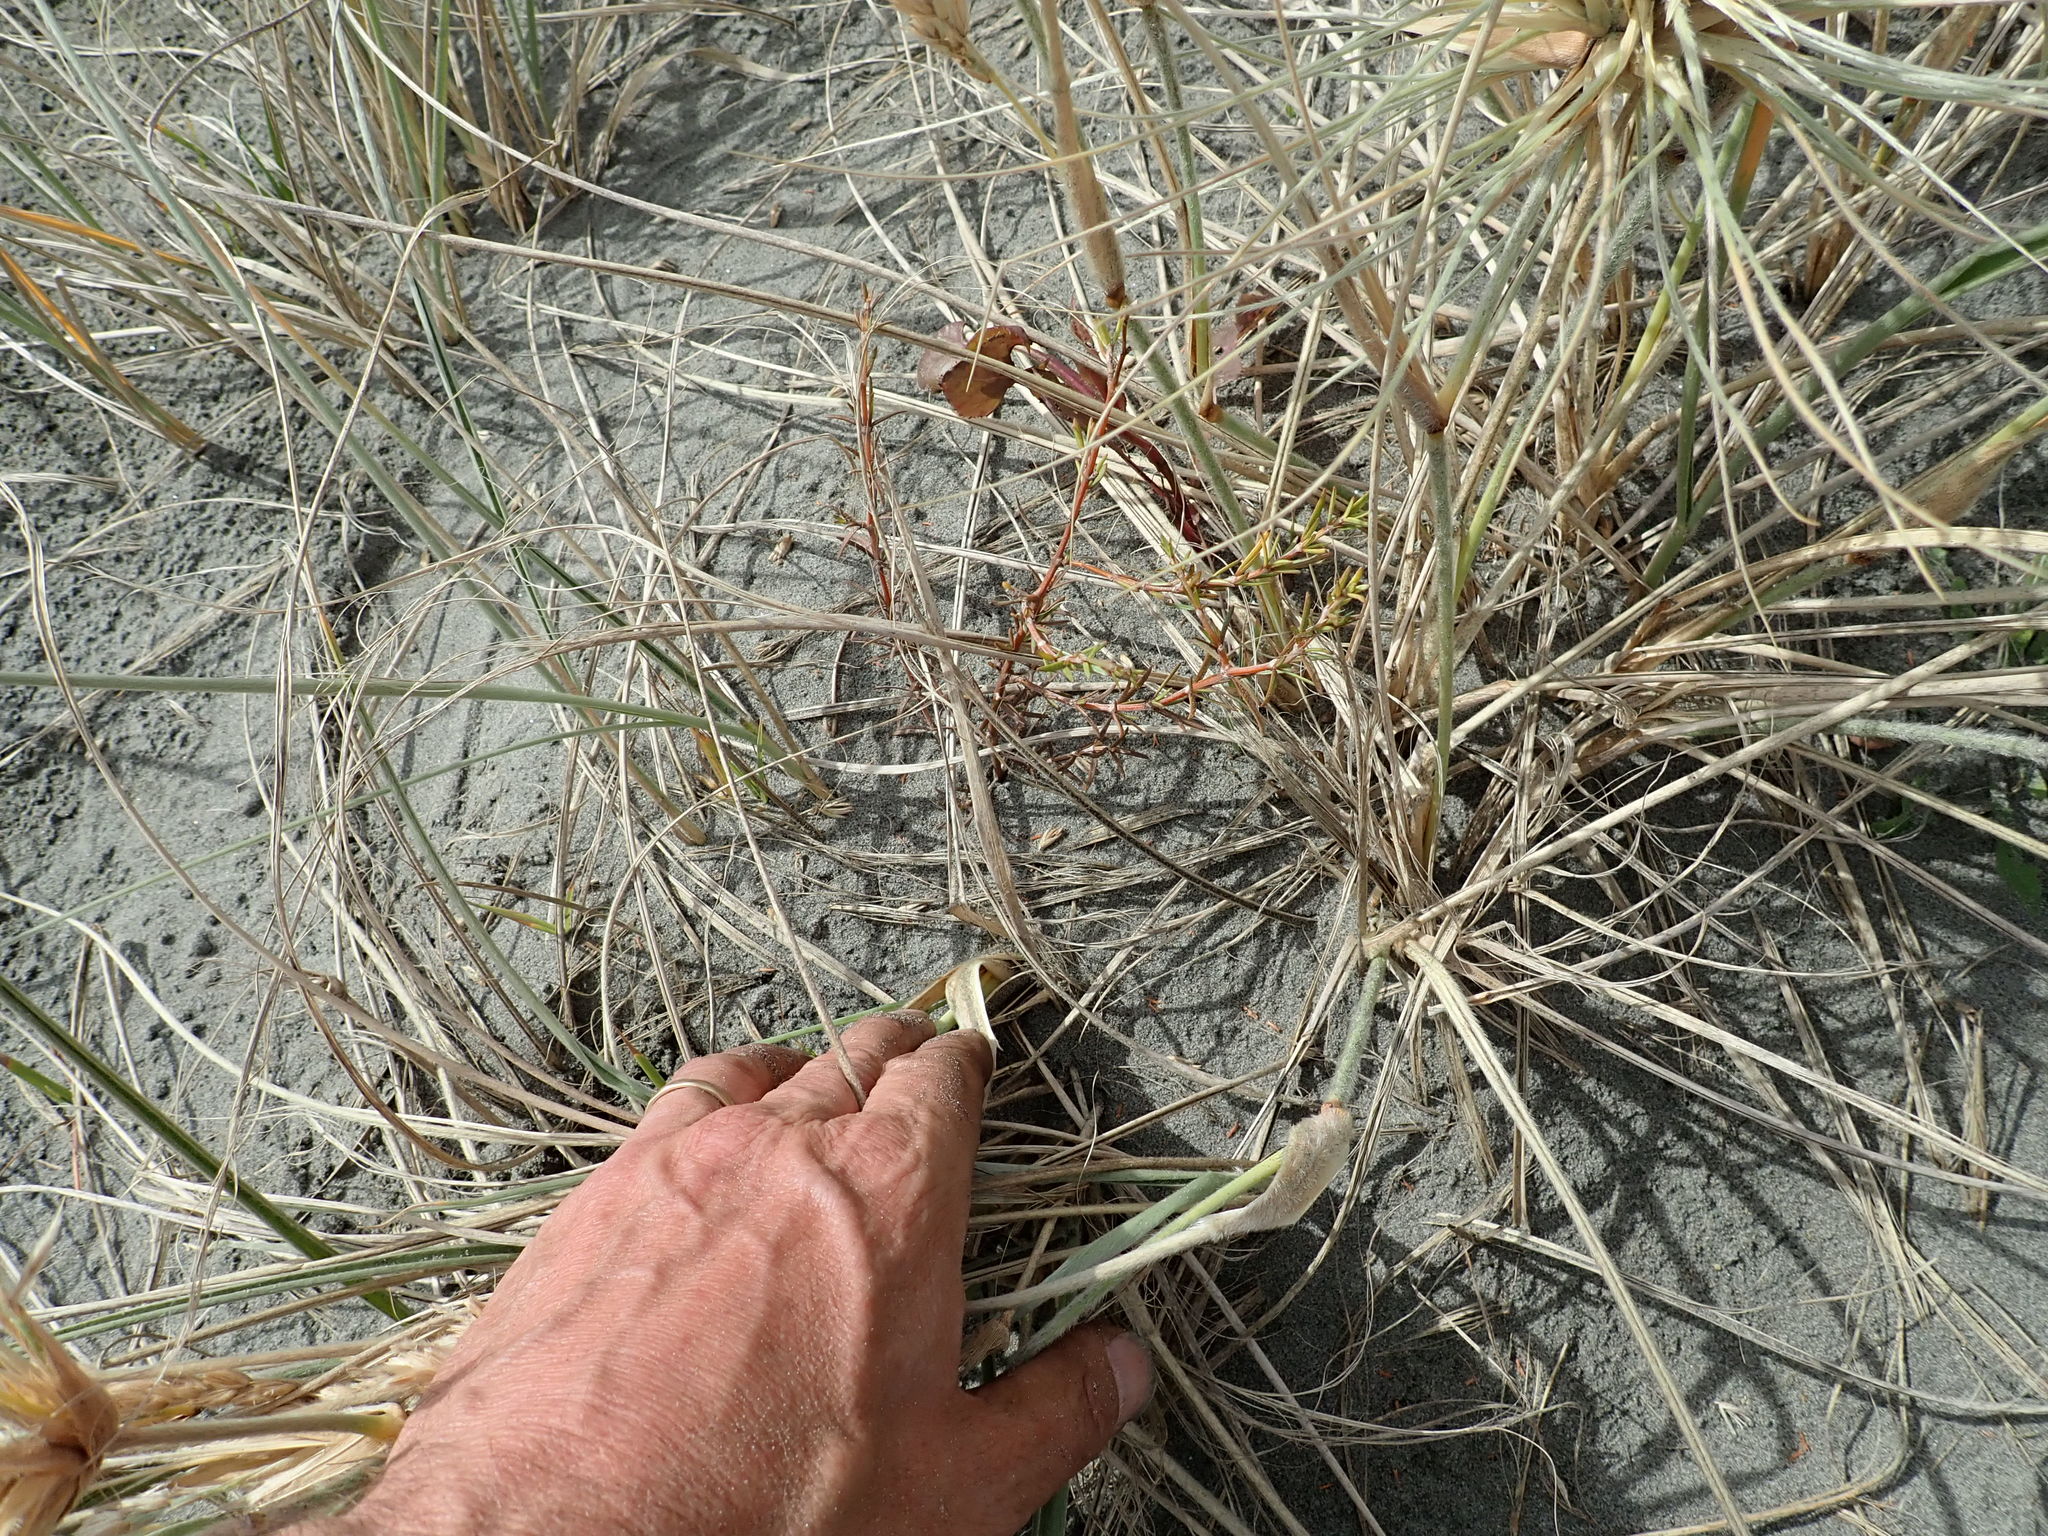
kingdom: Plantae
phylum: Tracheophyta
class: Magnoliopsida
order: Gentianales
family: Rubiaceae
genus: Coprosma
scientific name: Coprosma acerosa
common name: Sand coprosma
